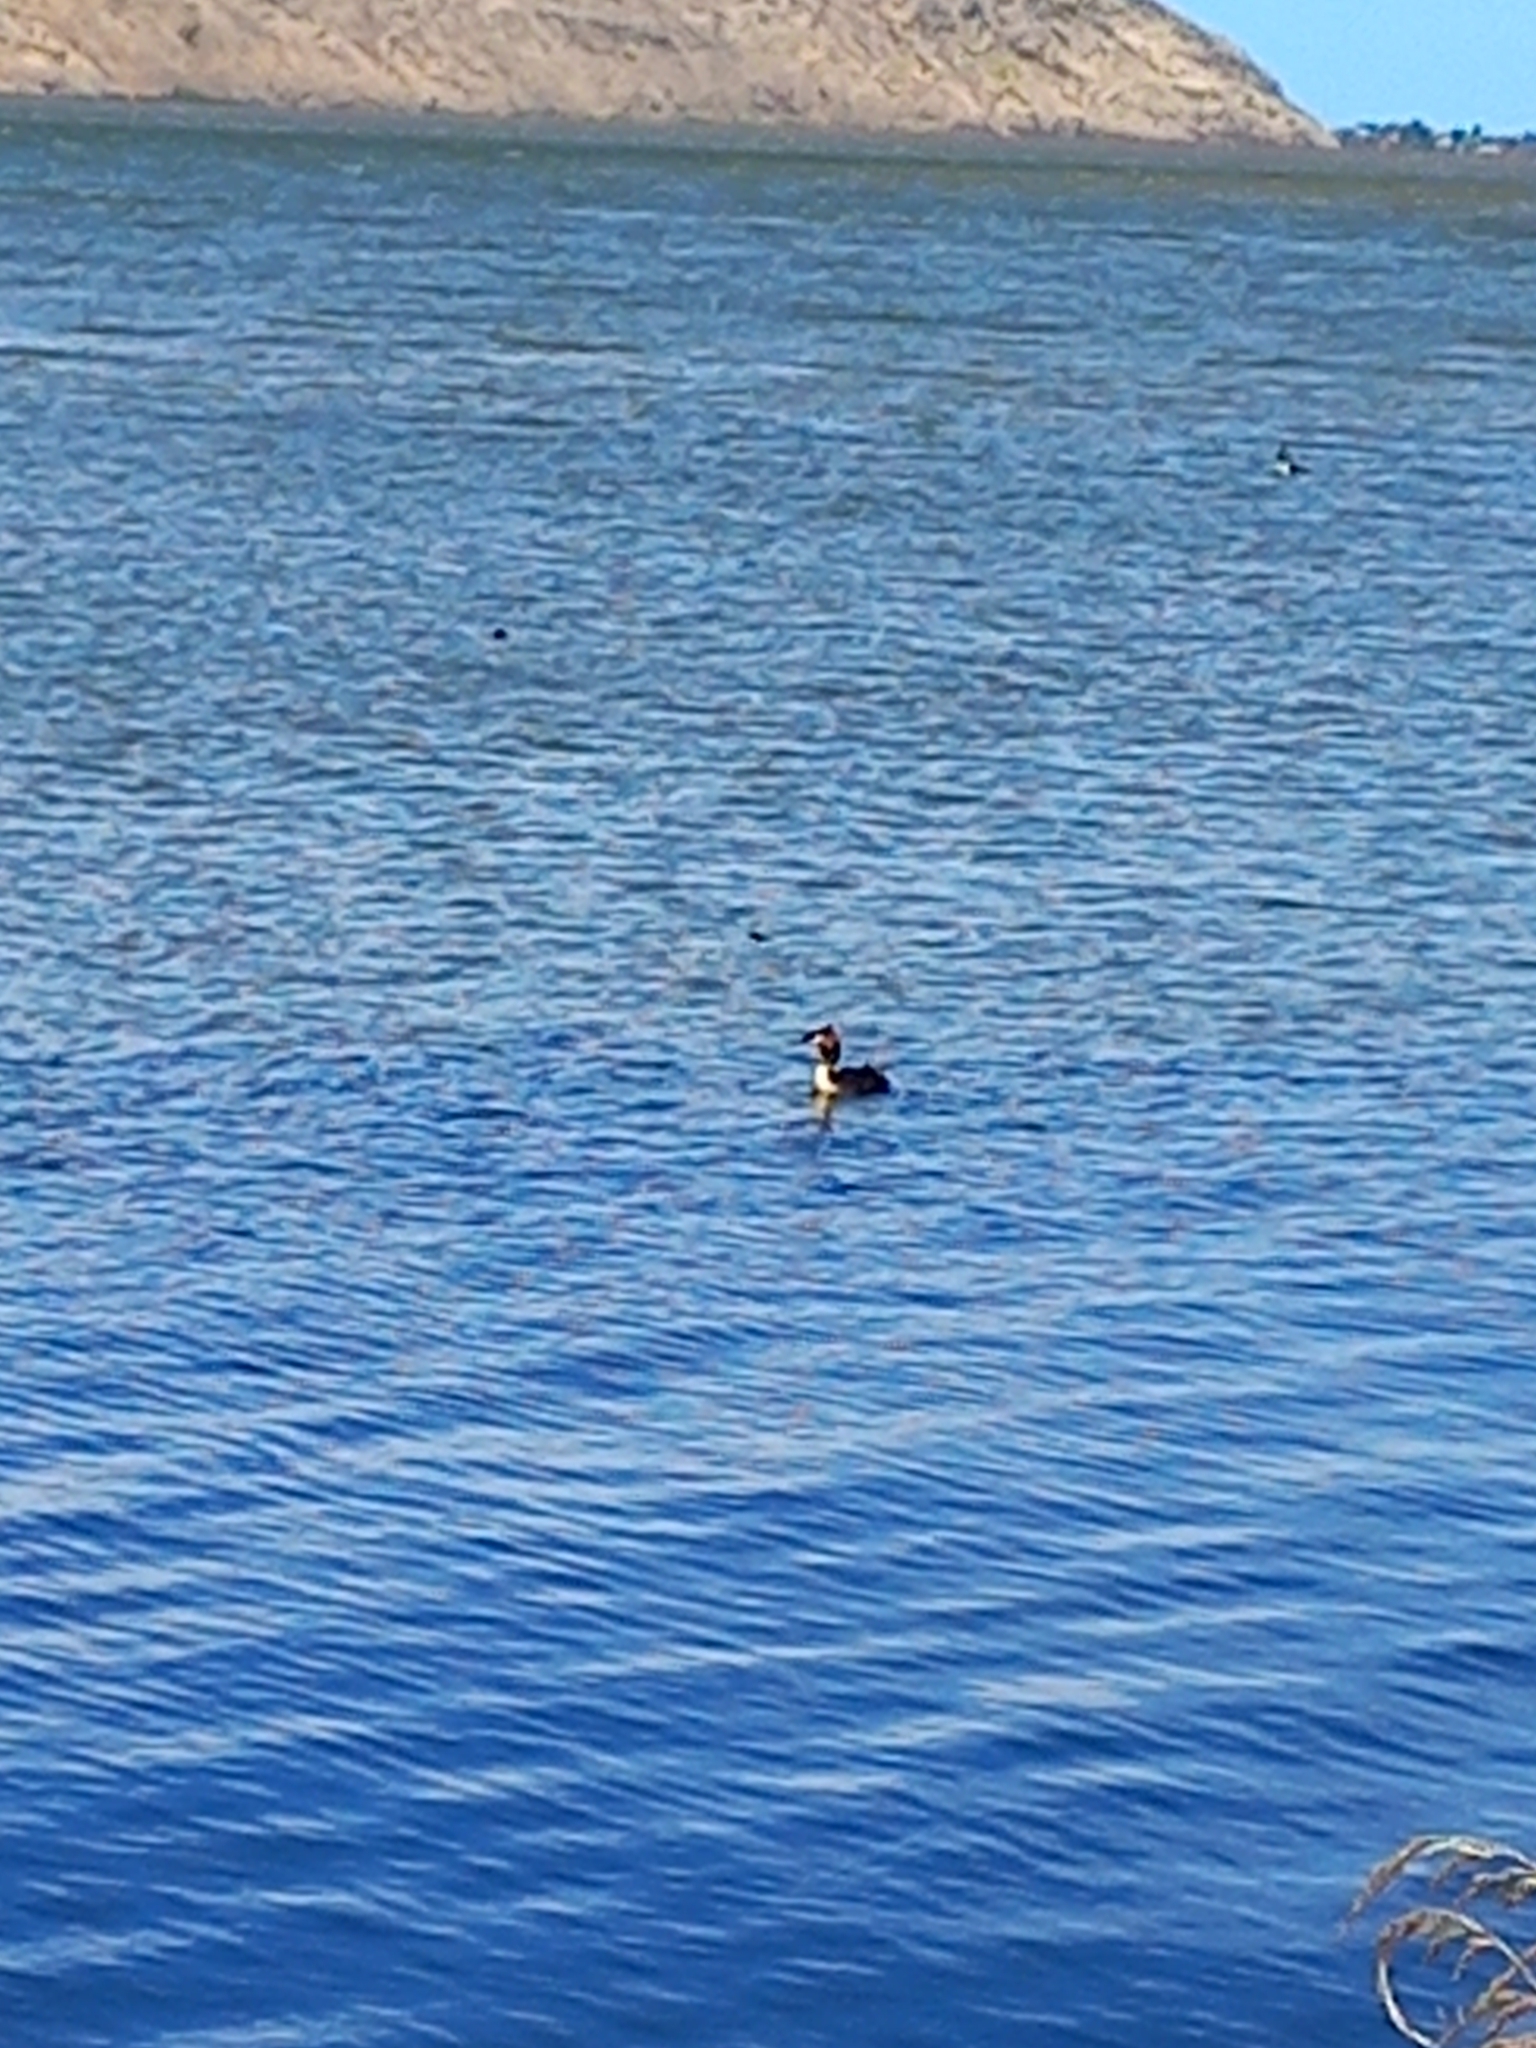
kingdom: Animalia
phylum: Chordata
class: Aves
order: Podicipediformes
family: Podicipedidae
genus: Podiceps
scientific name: Podiceps cristatus
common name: Great crested grebe
